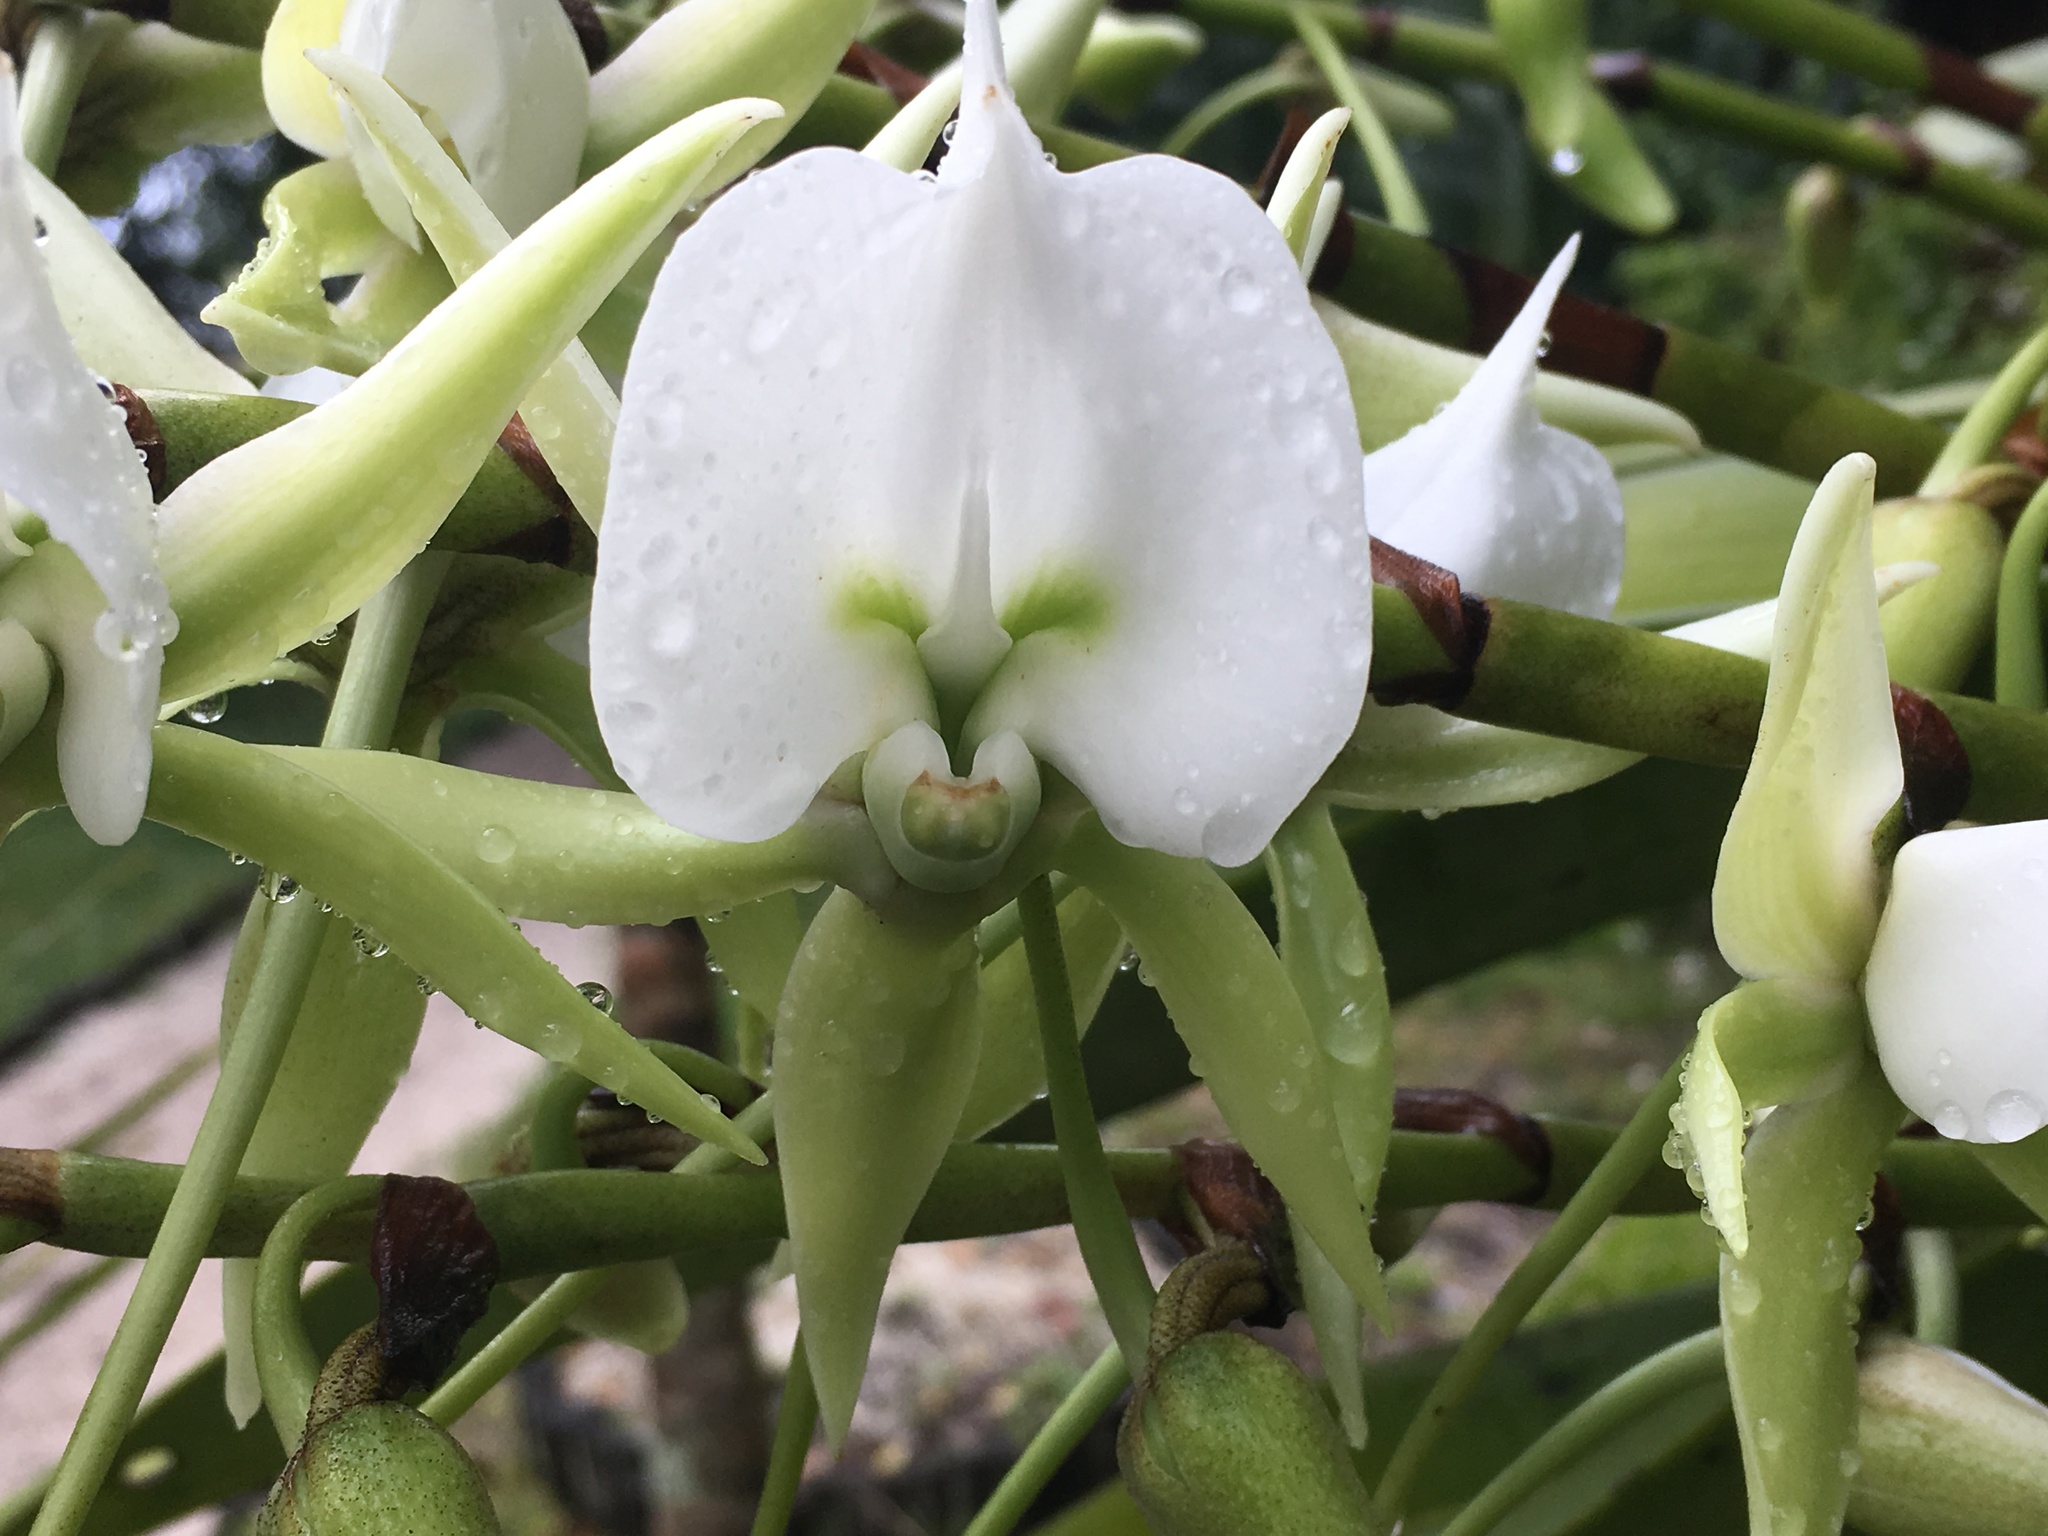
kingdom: Plantae
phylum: Tracheophyta
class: Liliopsida
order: Asparagales
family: Orchidaceae
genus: Angraecum
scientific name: Angraecum eburneum
